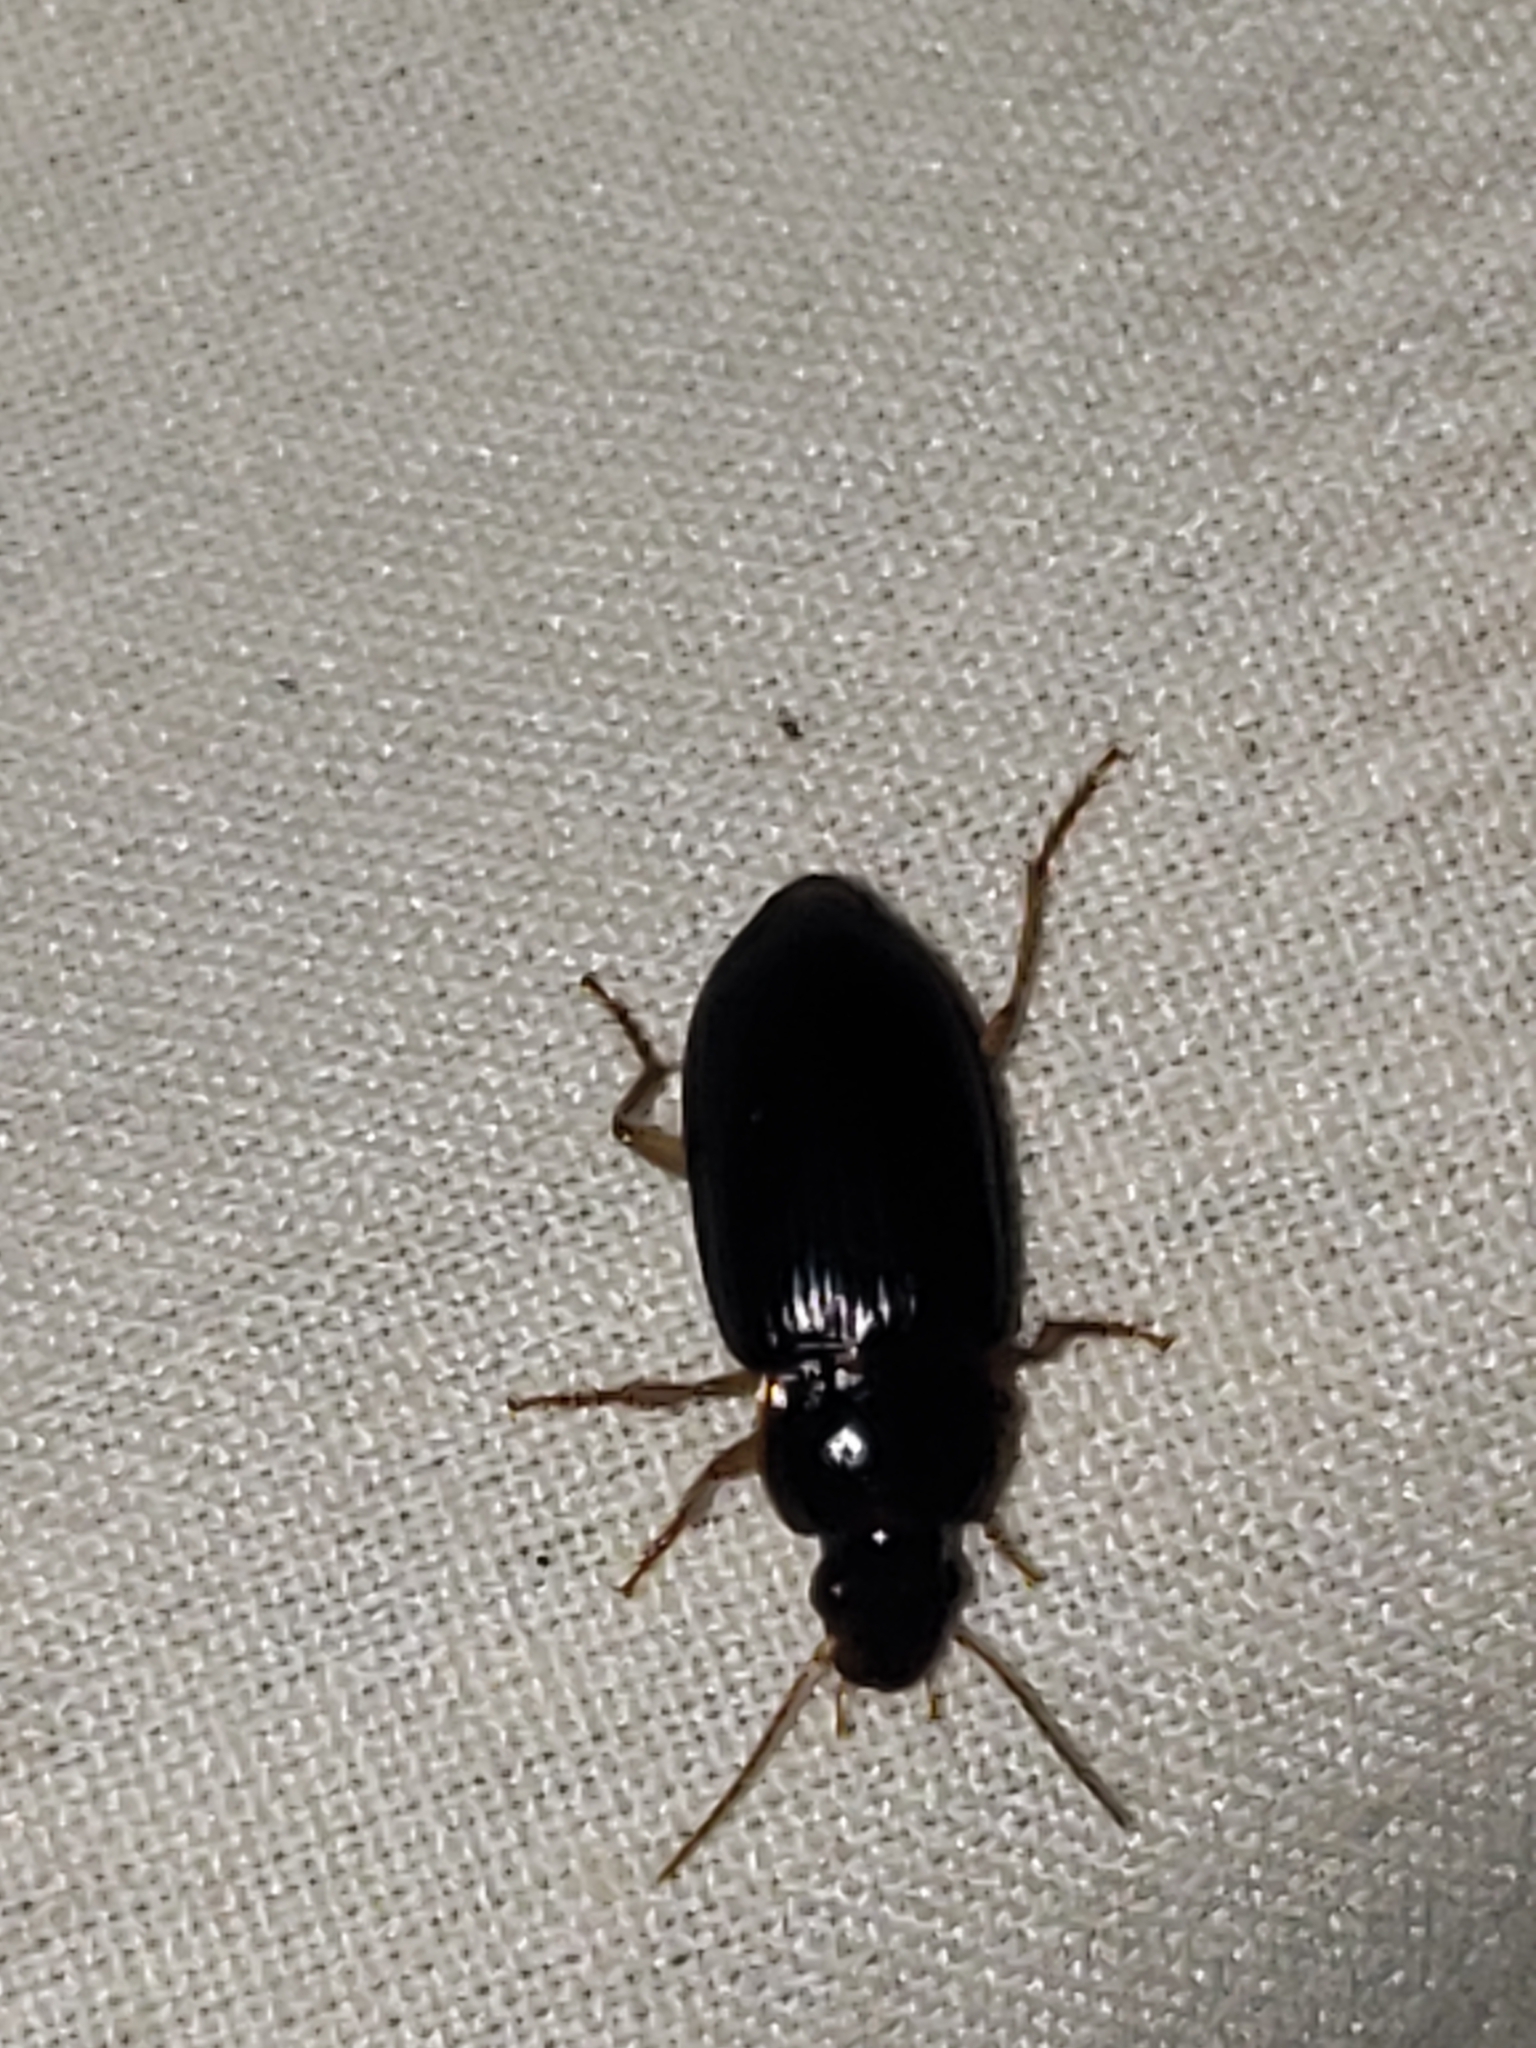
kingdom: Animalia
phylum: Arthropoda
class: Insecta
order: Coleoptera
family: Carabidae
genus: Notiobia
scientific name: Notiobia terminata
